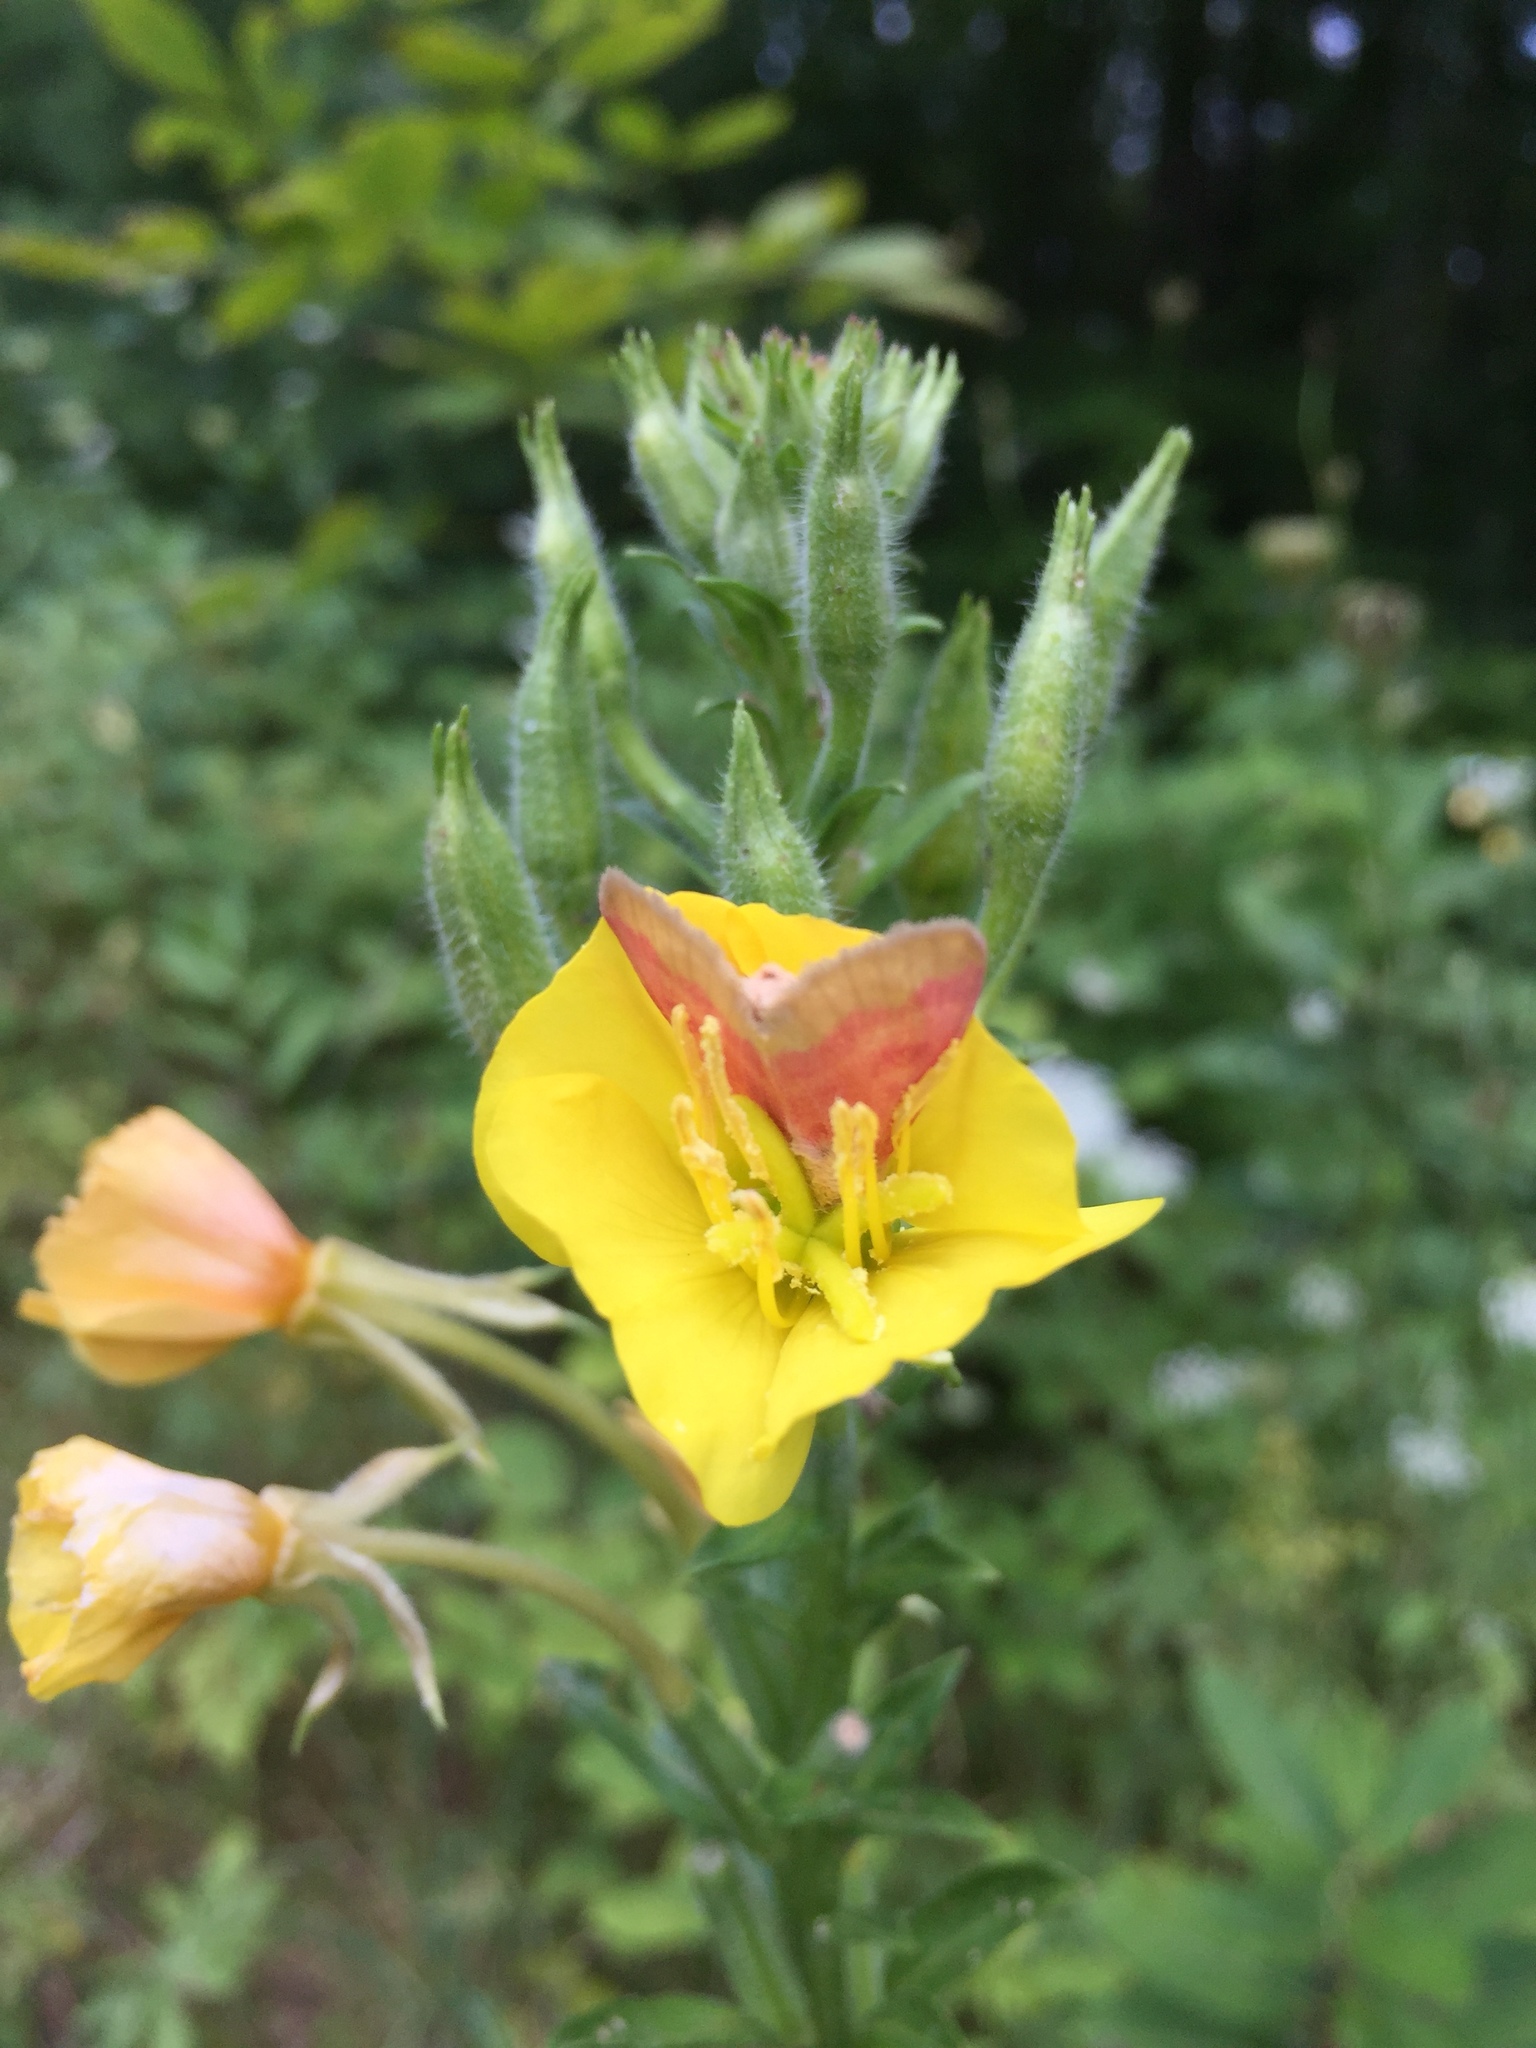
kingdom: Animalia
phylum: Arthropoda
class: Insecta
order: Lepidoptera
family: Noctuidae
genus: Schinia
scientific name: Schinia florida
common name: Primrose moth
